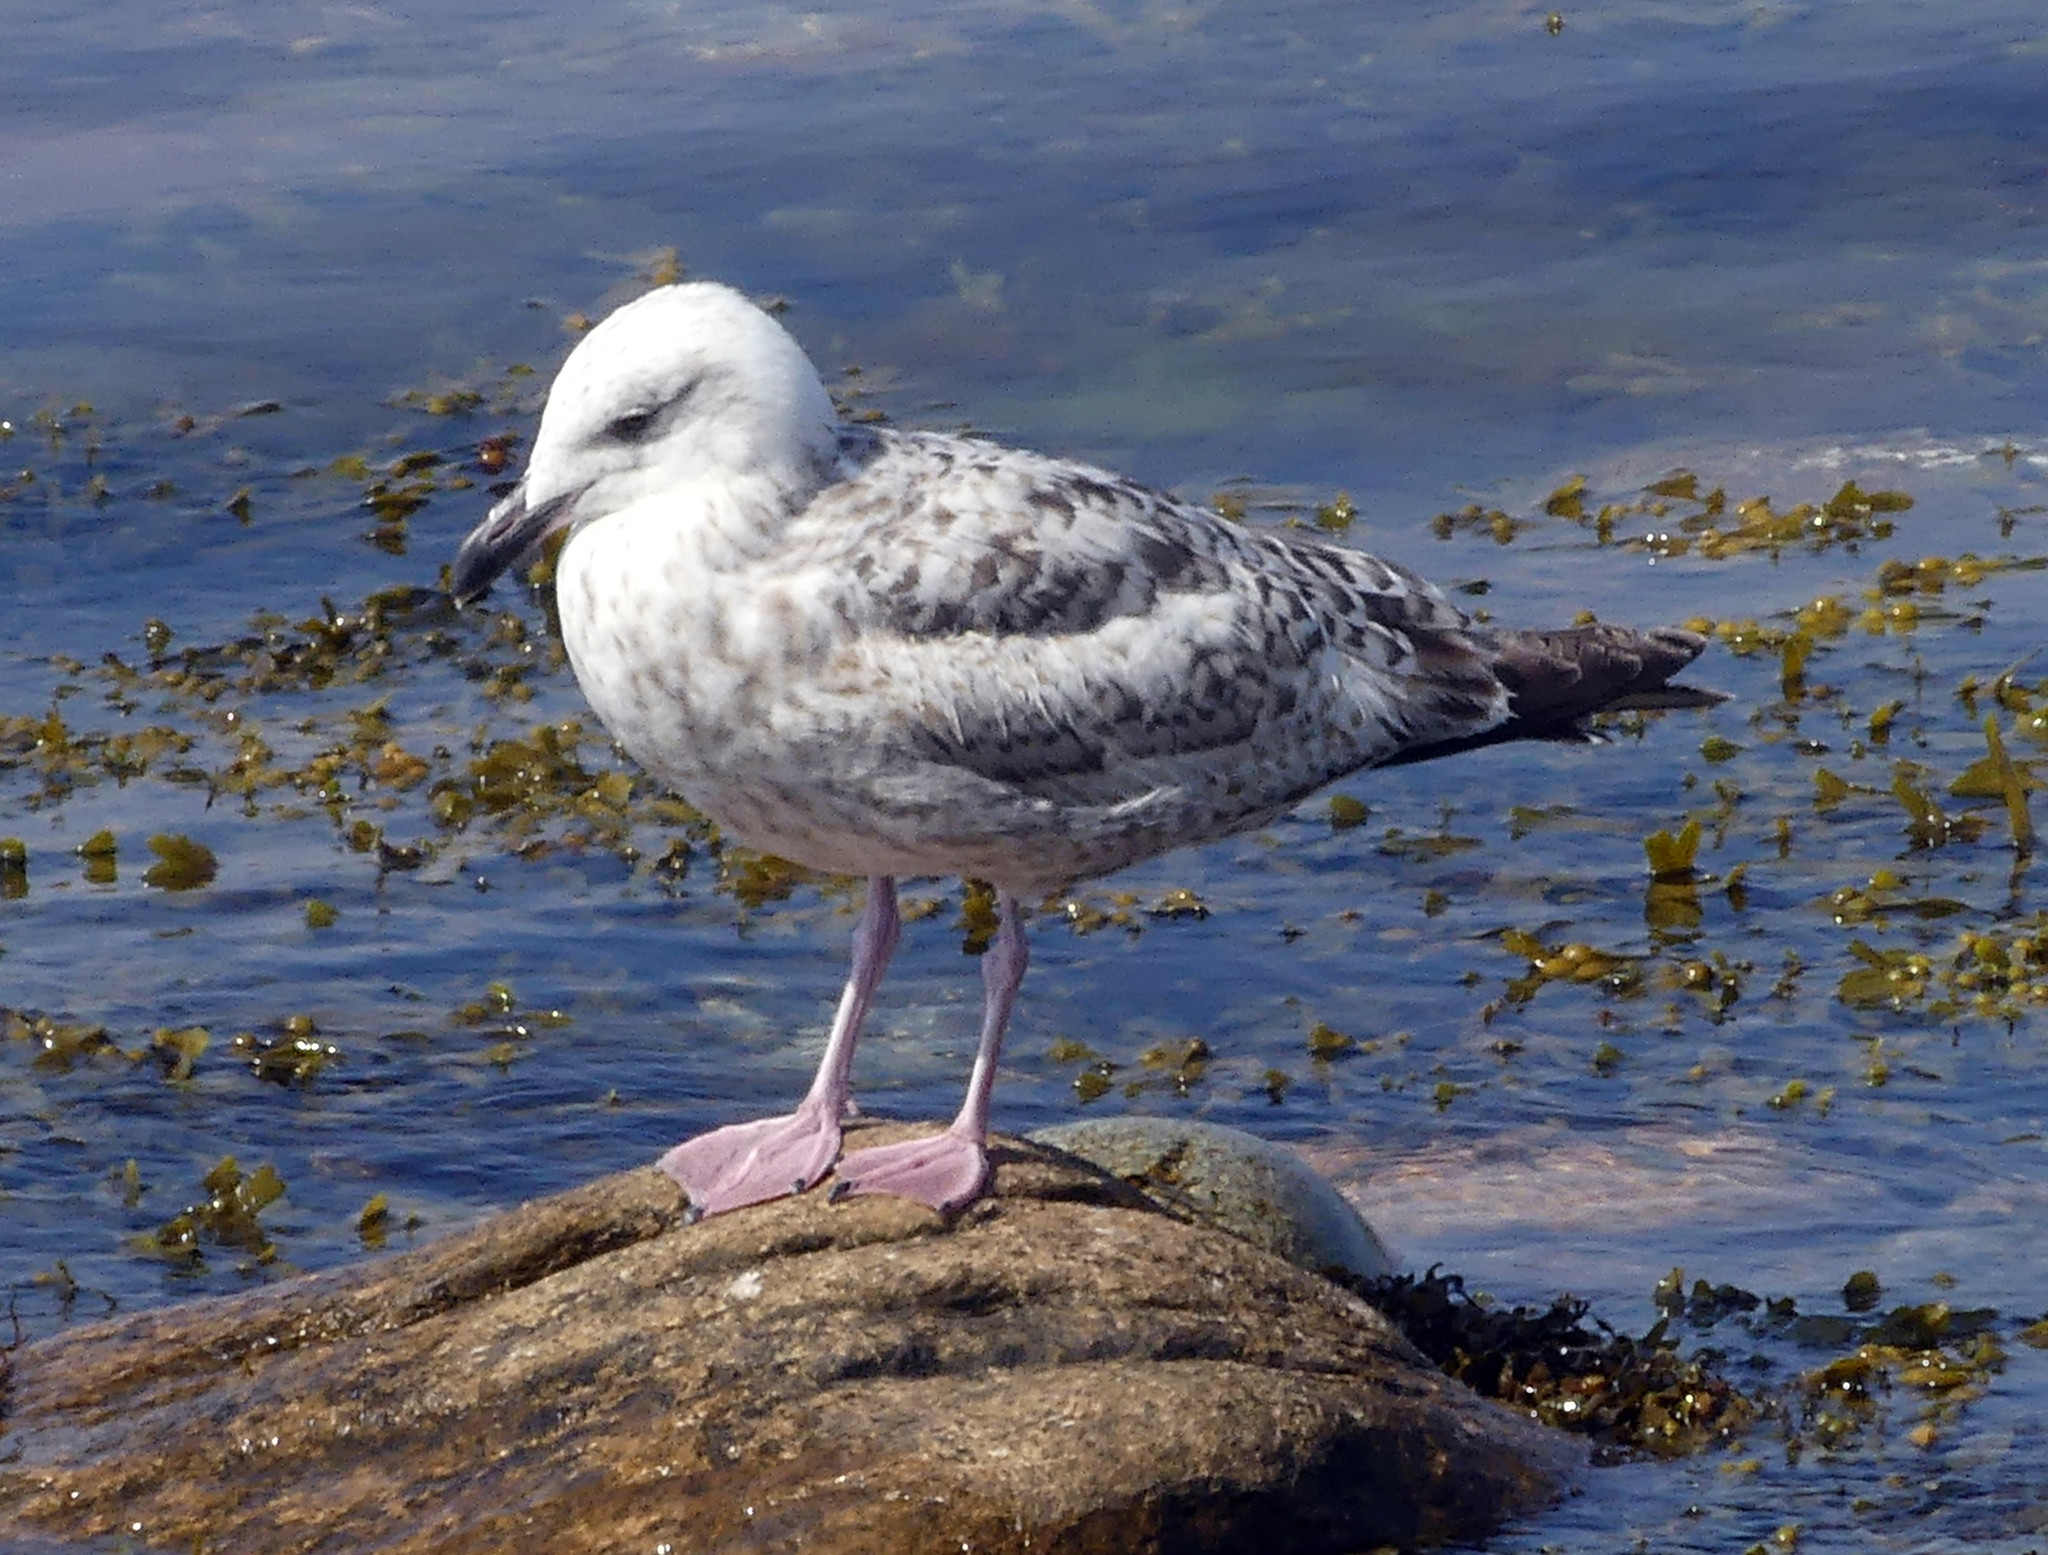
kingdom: Animalia
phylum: Chordata
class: Aves
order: Charadriiformes
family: Laridae
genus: Larus
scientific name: Larus argentatus
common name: Herring gull
